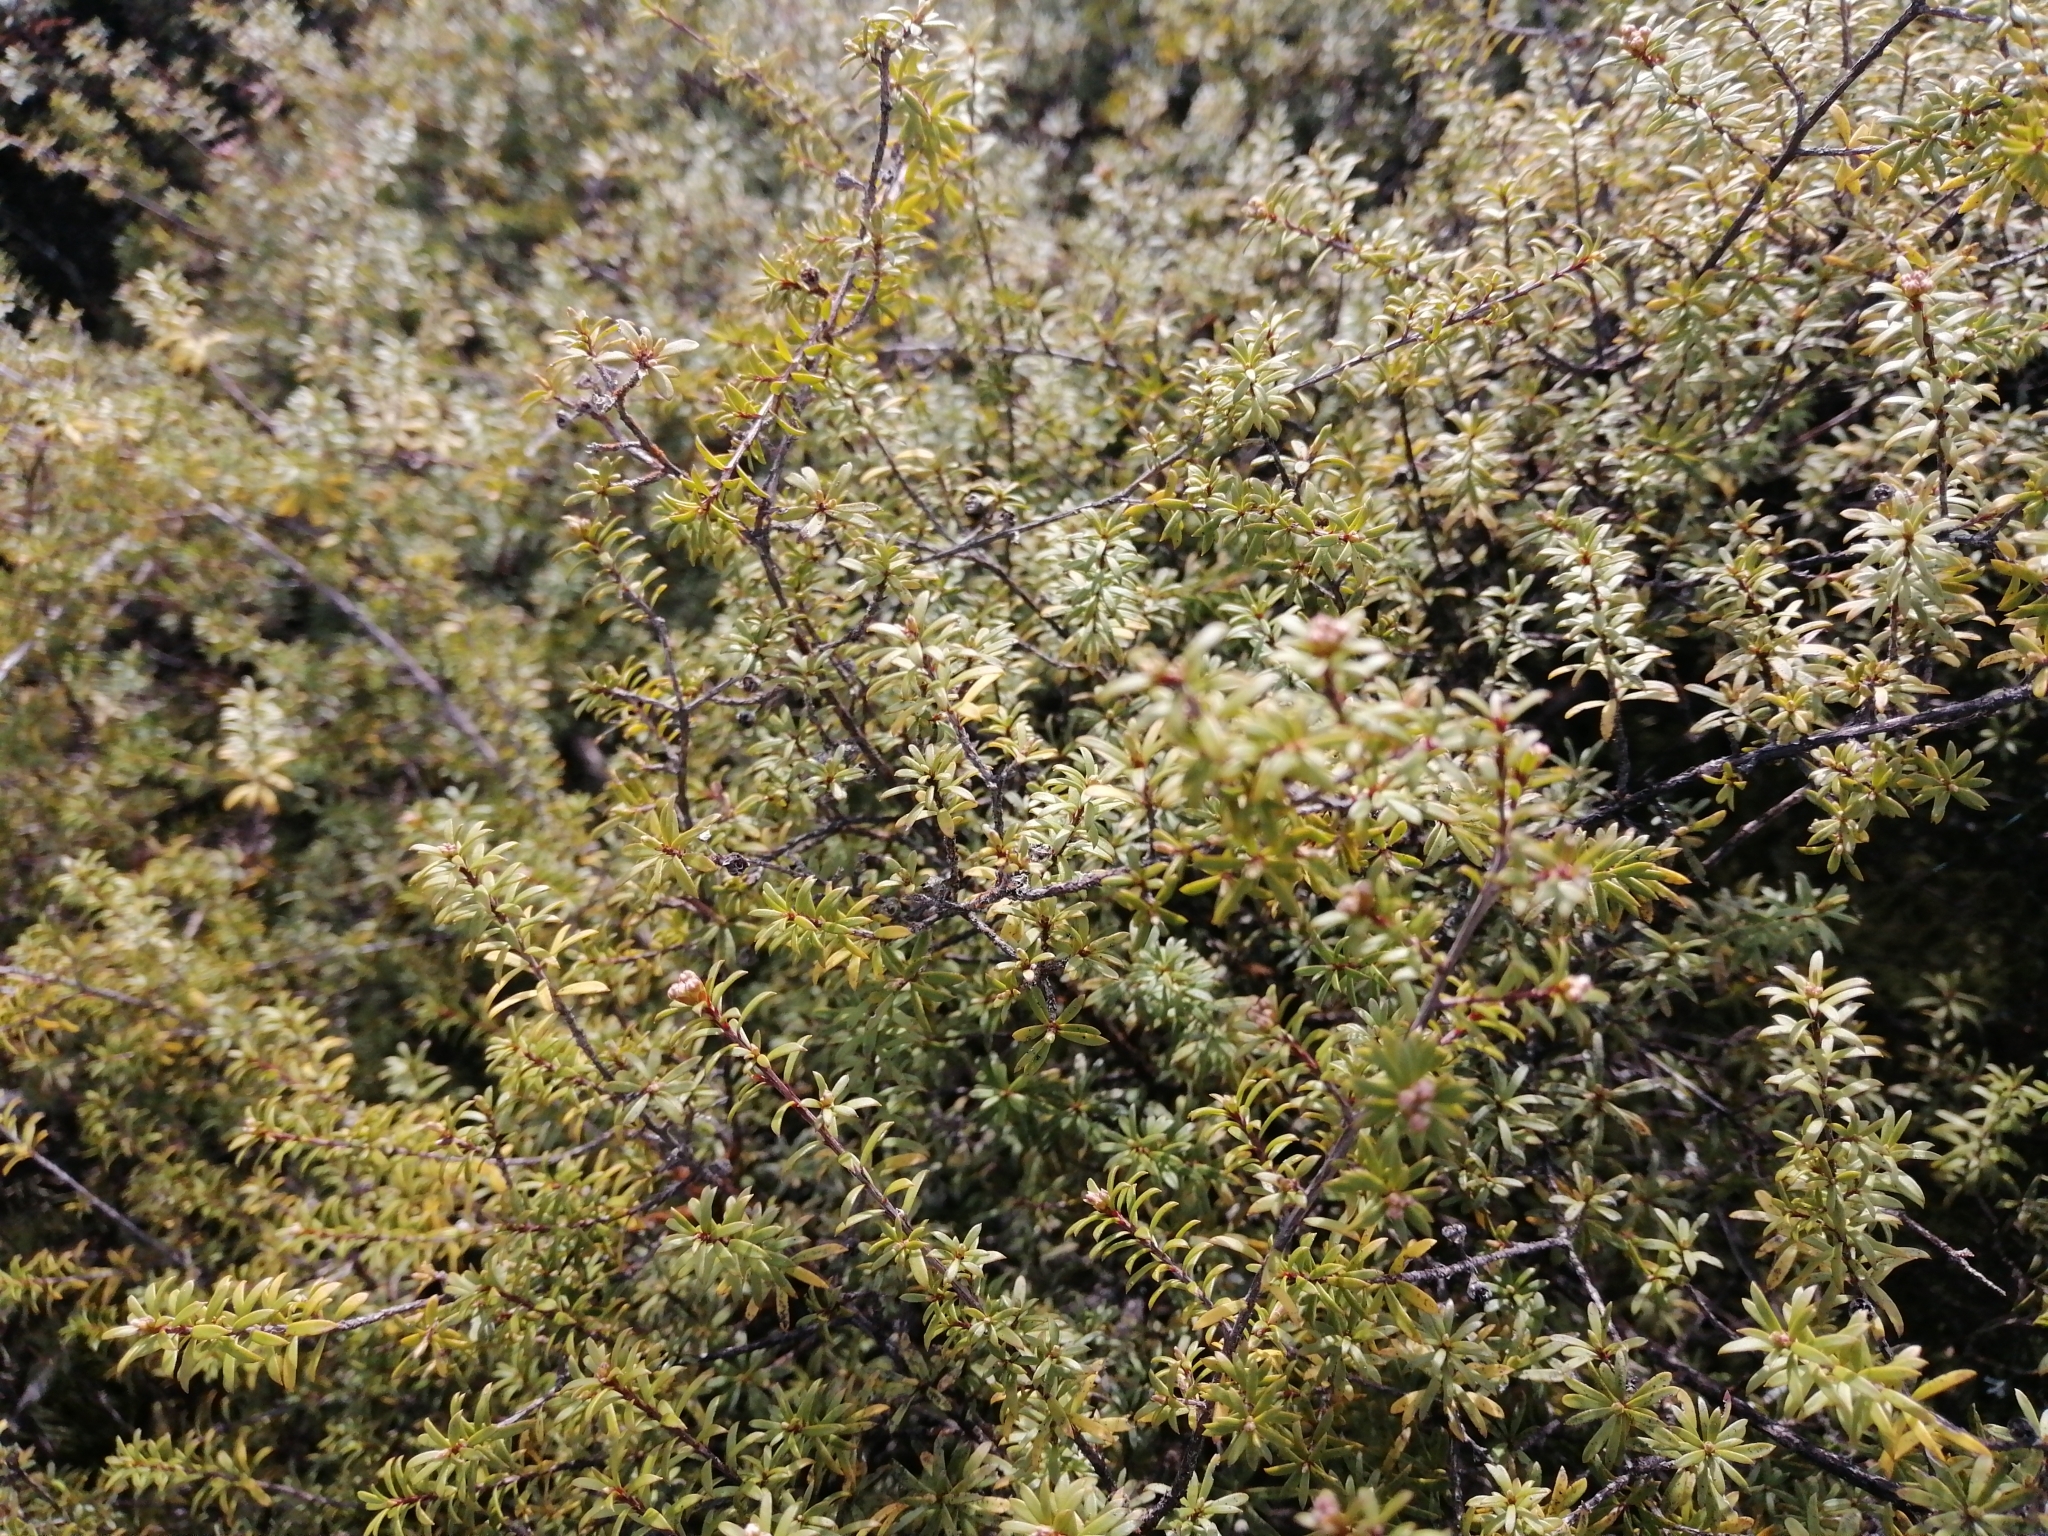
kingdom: Plantae
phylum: Tracheophyta
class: Magnoliopsida
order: Myrtales
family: Myrtaceae
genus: Kunzea
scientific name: Kunzea tenuicaulis
